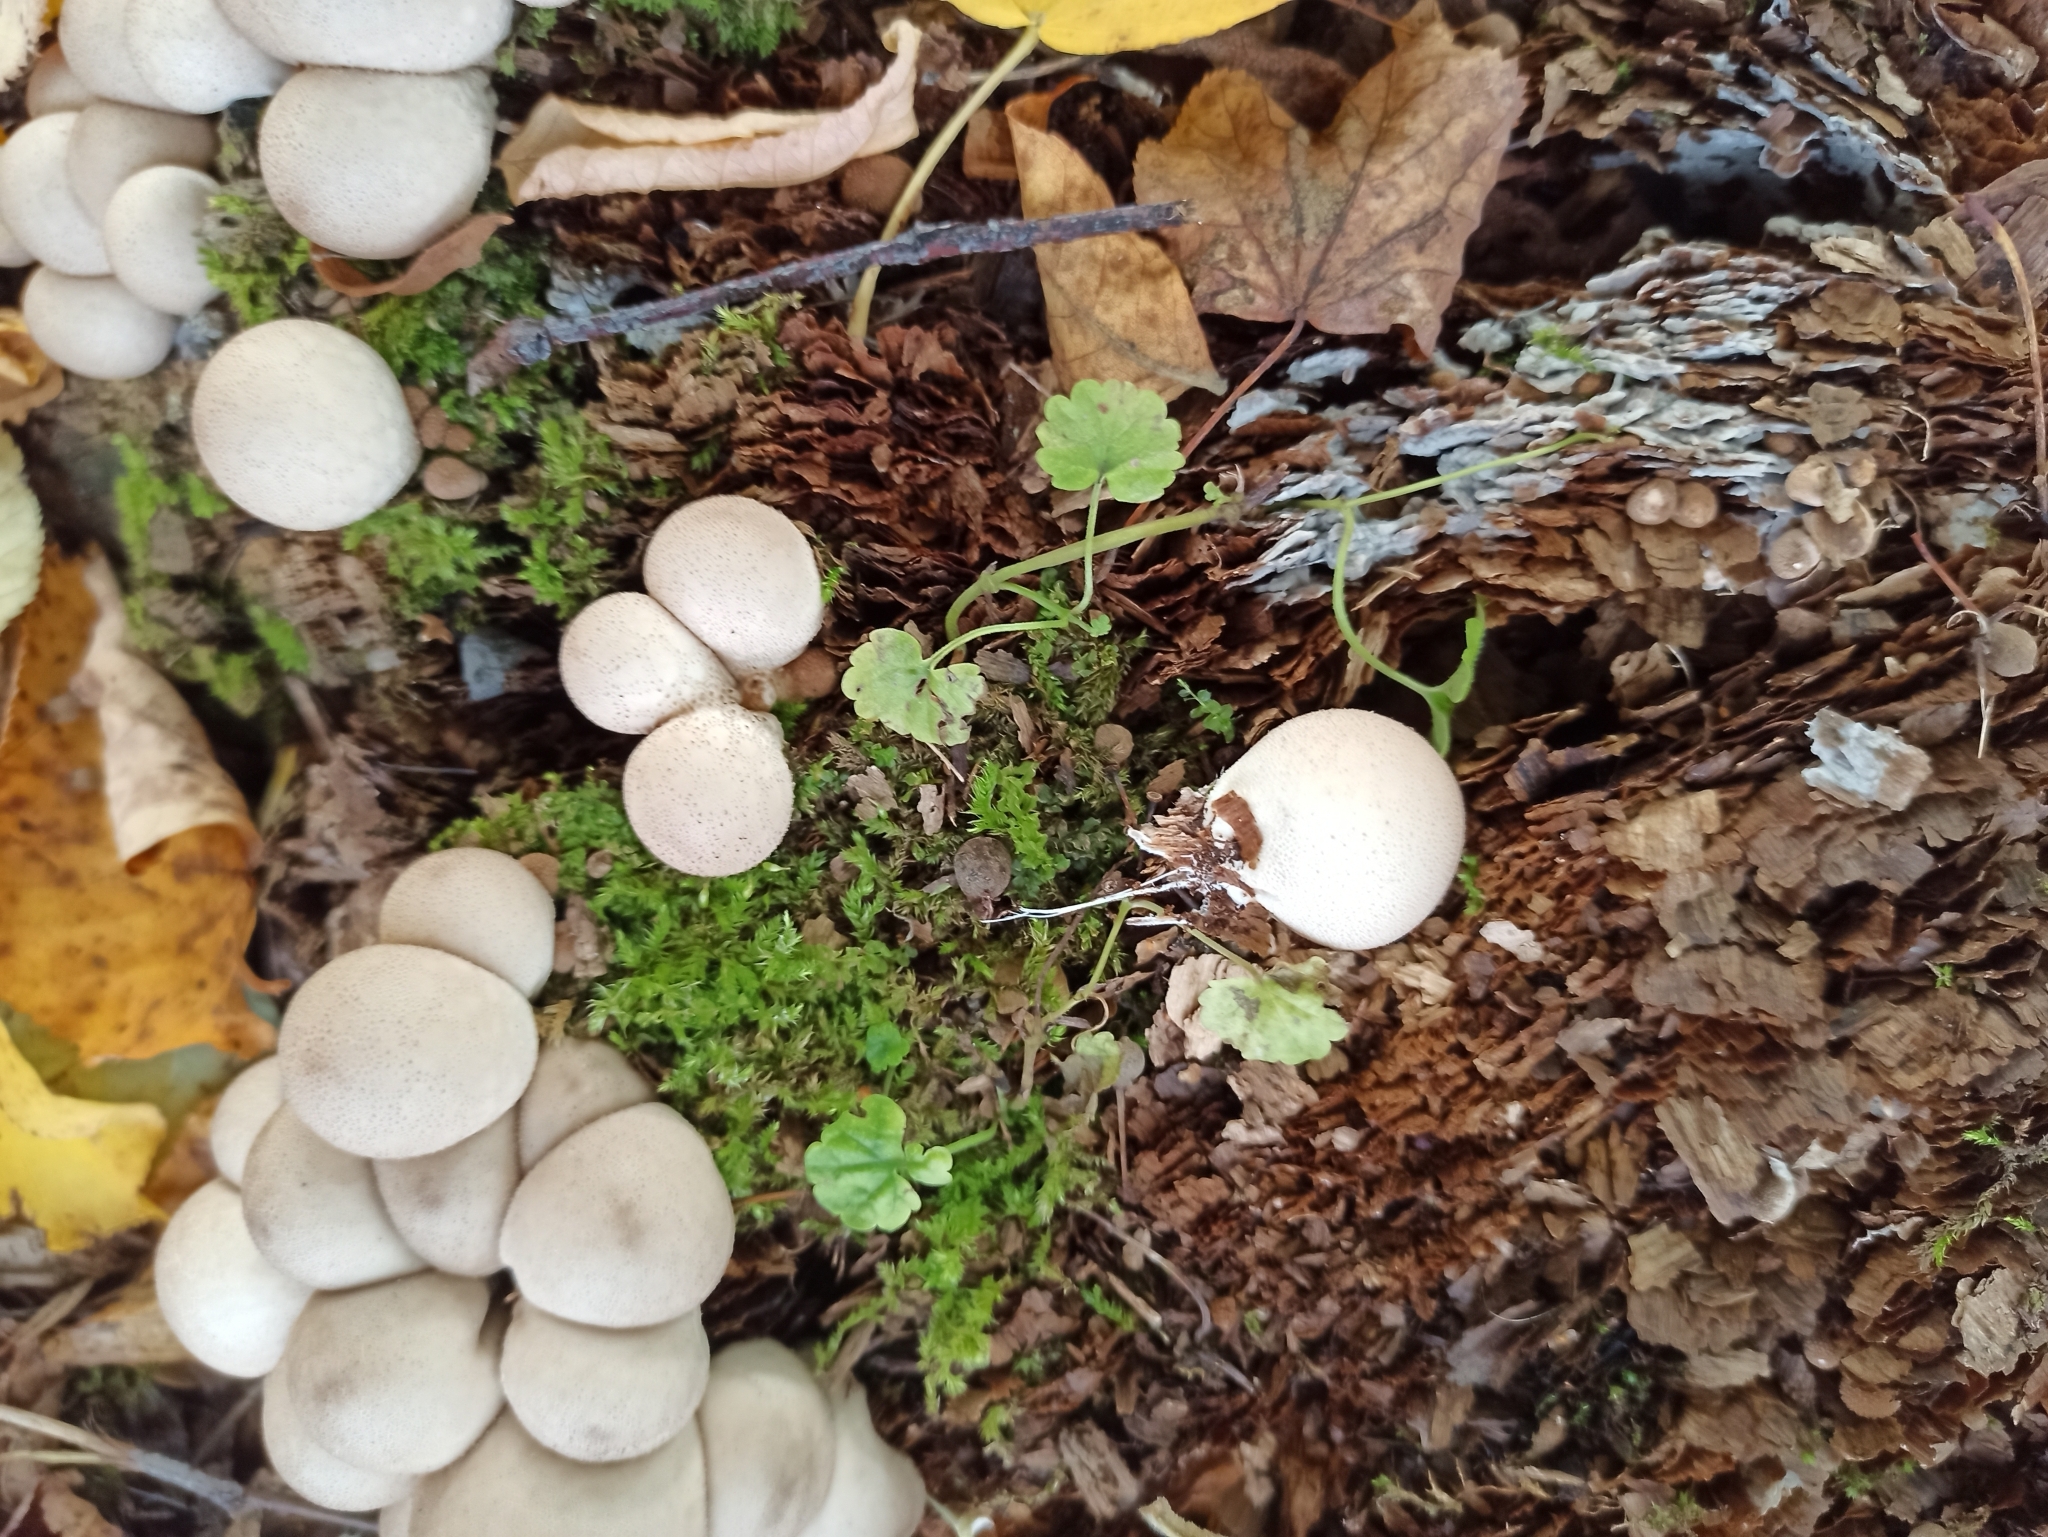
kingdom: Fungi
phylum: Basidiomycota
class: Agaricomycetes
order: Agaricales
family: Lycoperdaceae
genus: Apioperdon
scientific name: Apioperdon pyriforme
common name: Pear-shaped puffball
